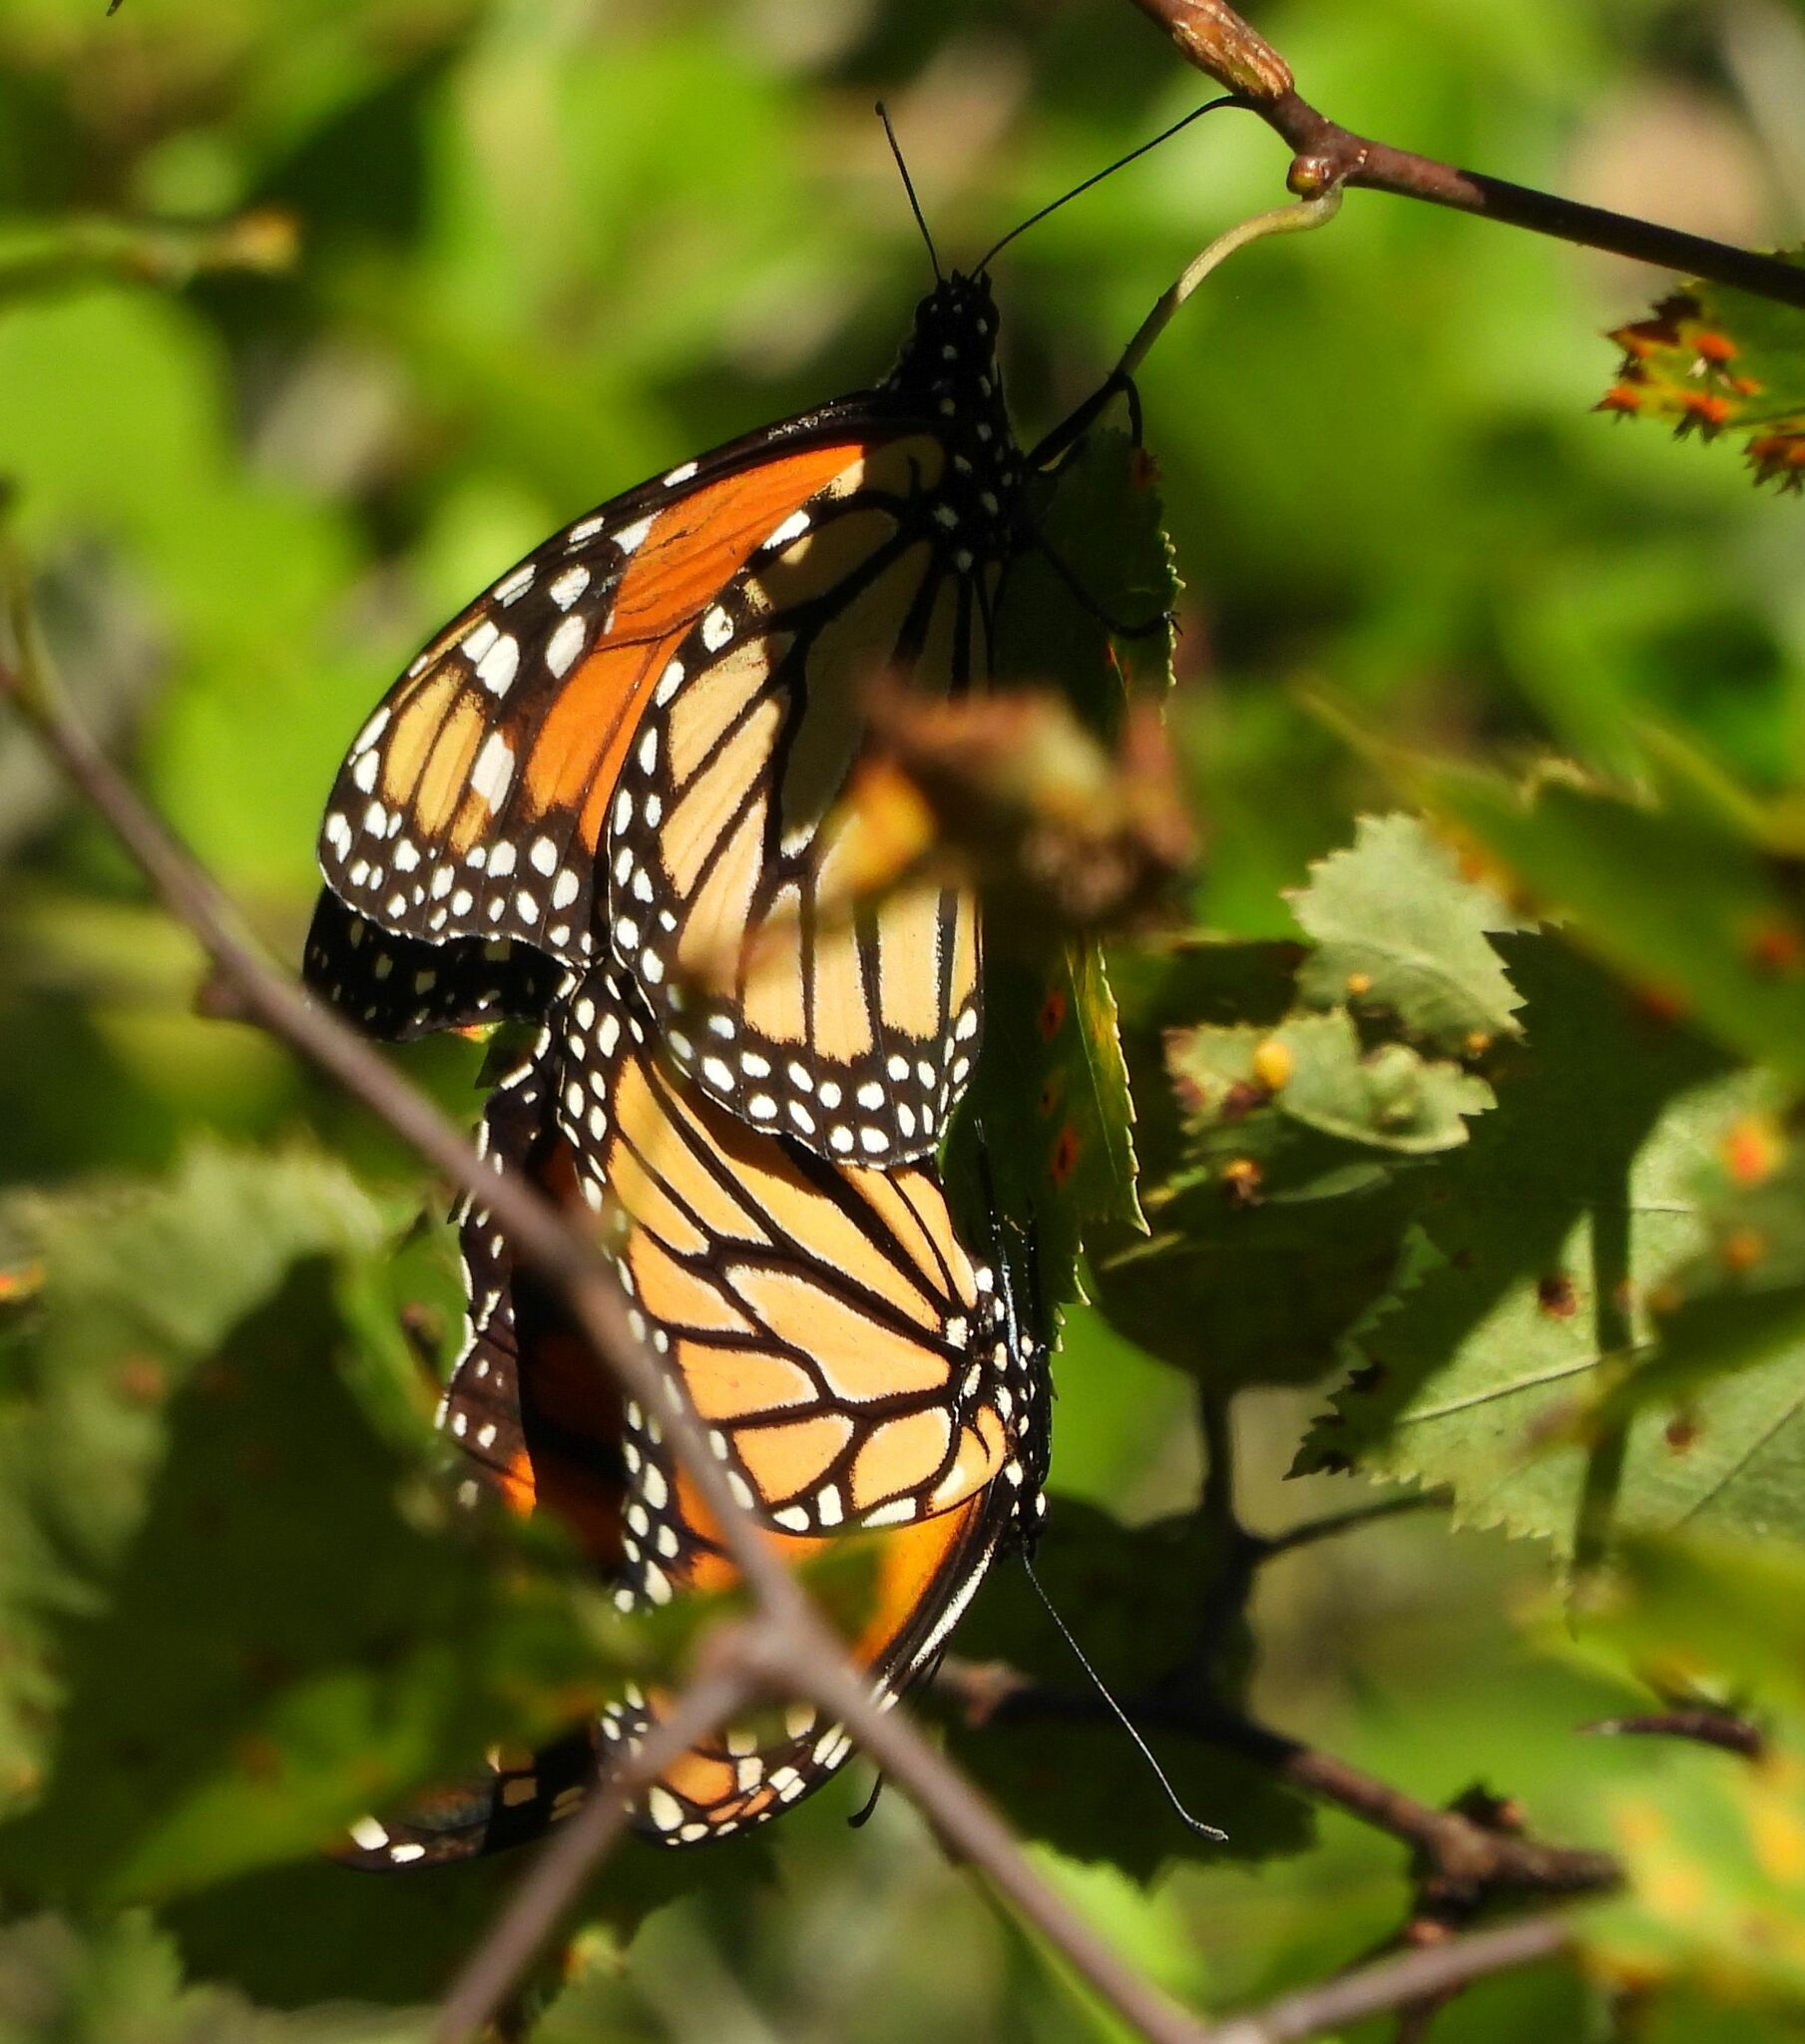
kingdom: Animalia
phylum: Arthropoda
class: Insecta
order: Lepidoptera
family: Nymphalidae
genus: Danaus
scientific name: Danaus plexippus
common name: Monarch
